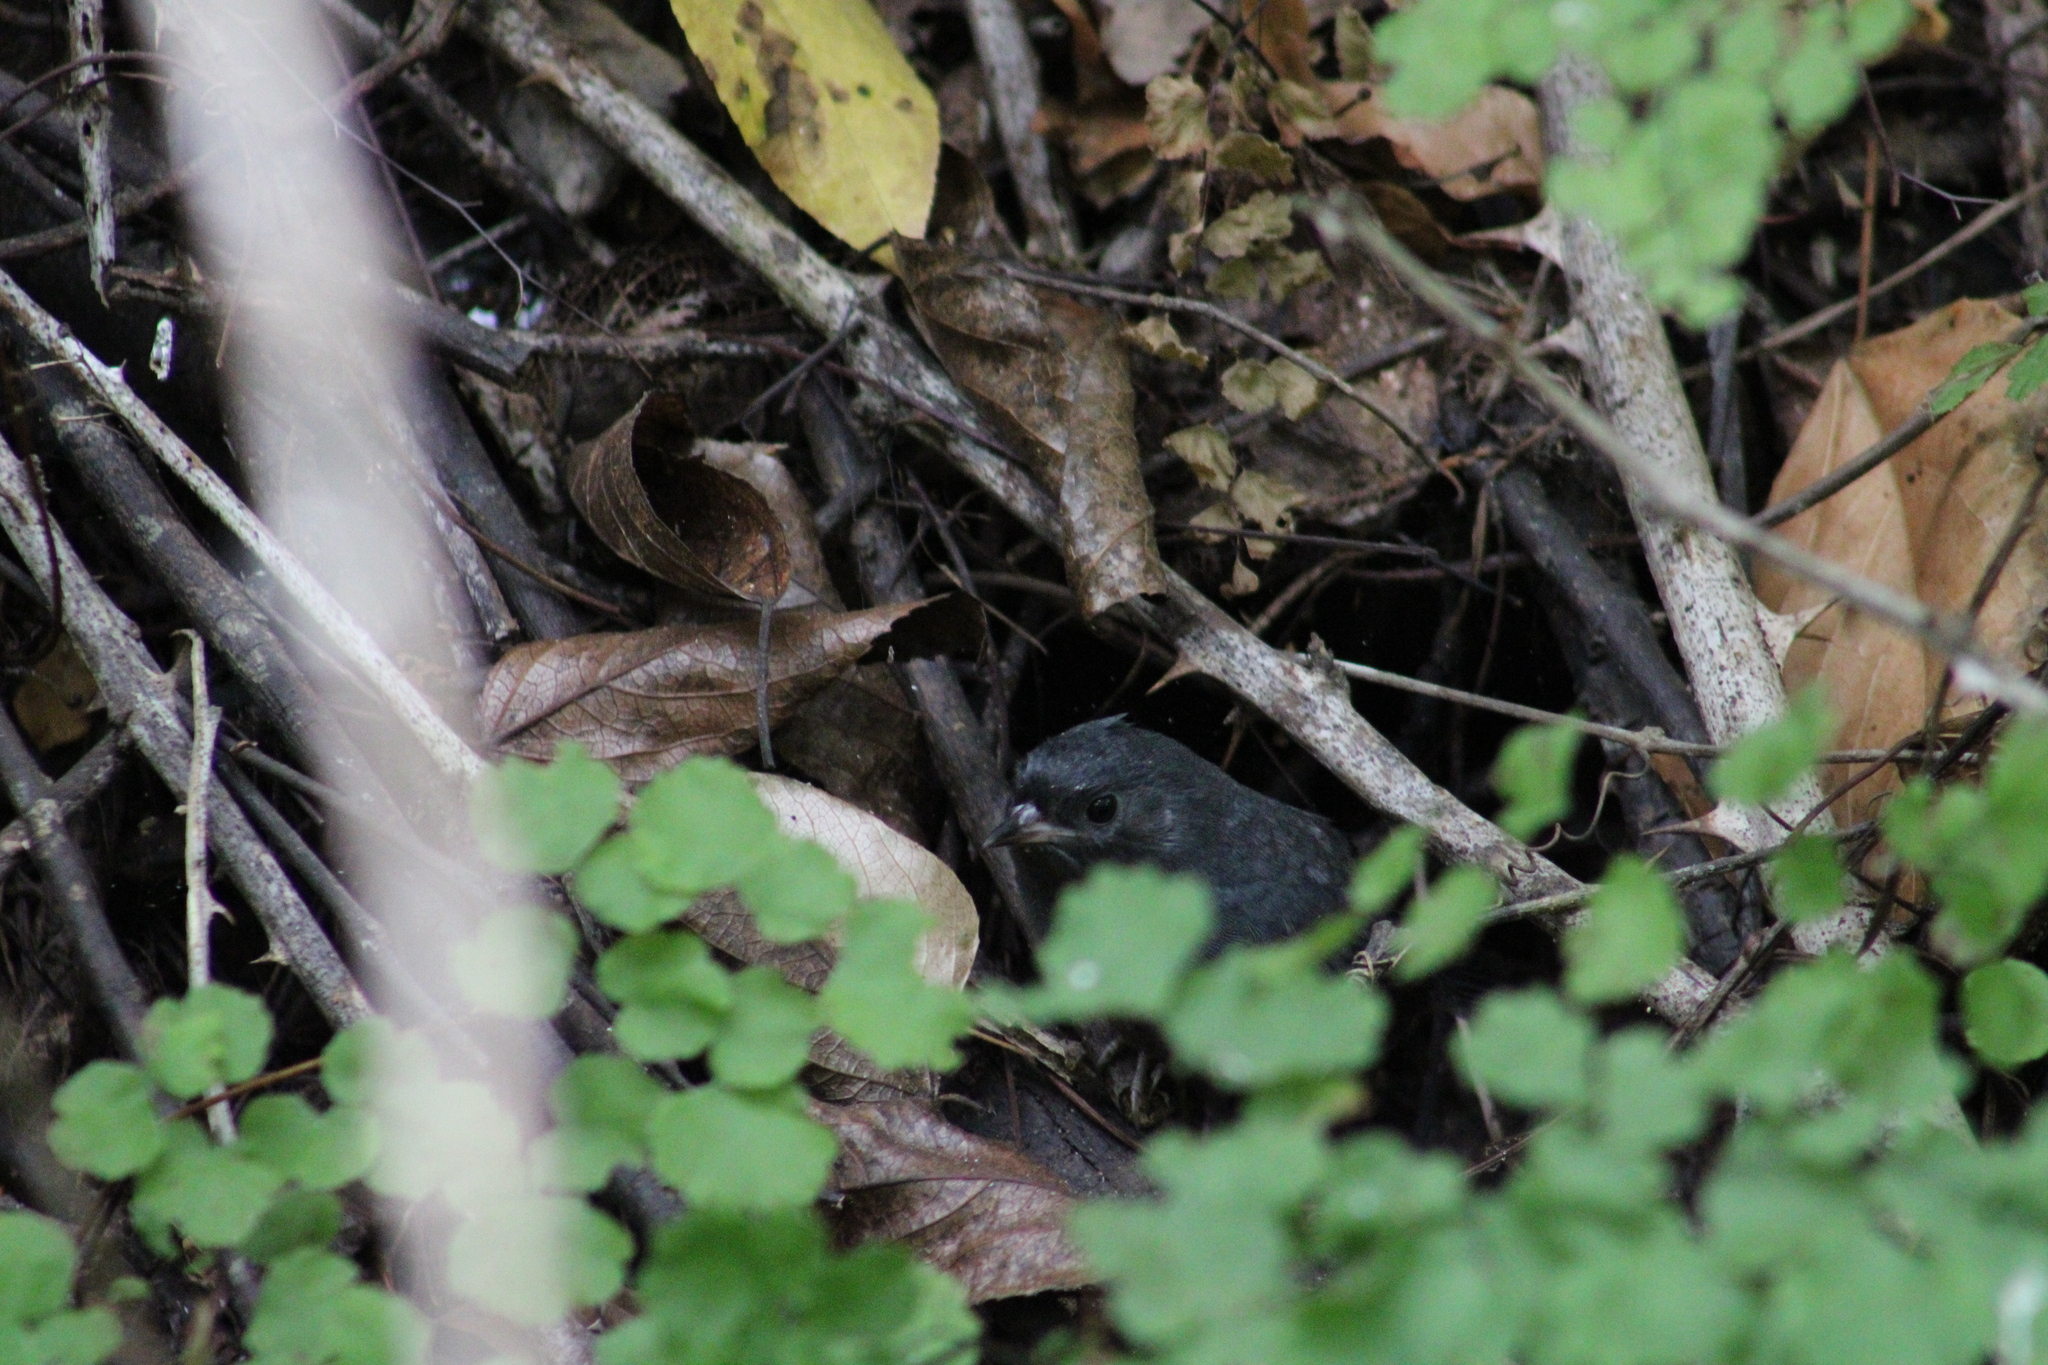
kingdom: Animalia
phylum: Chordata
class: Aves
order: Passeriformes
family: Rhinocryptidae
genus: Scytalopus
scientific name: Scytalopus fuscus
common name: Dusky tapaculo
